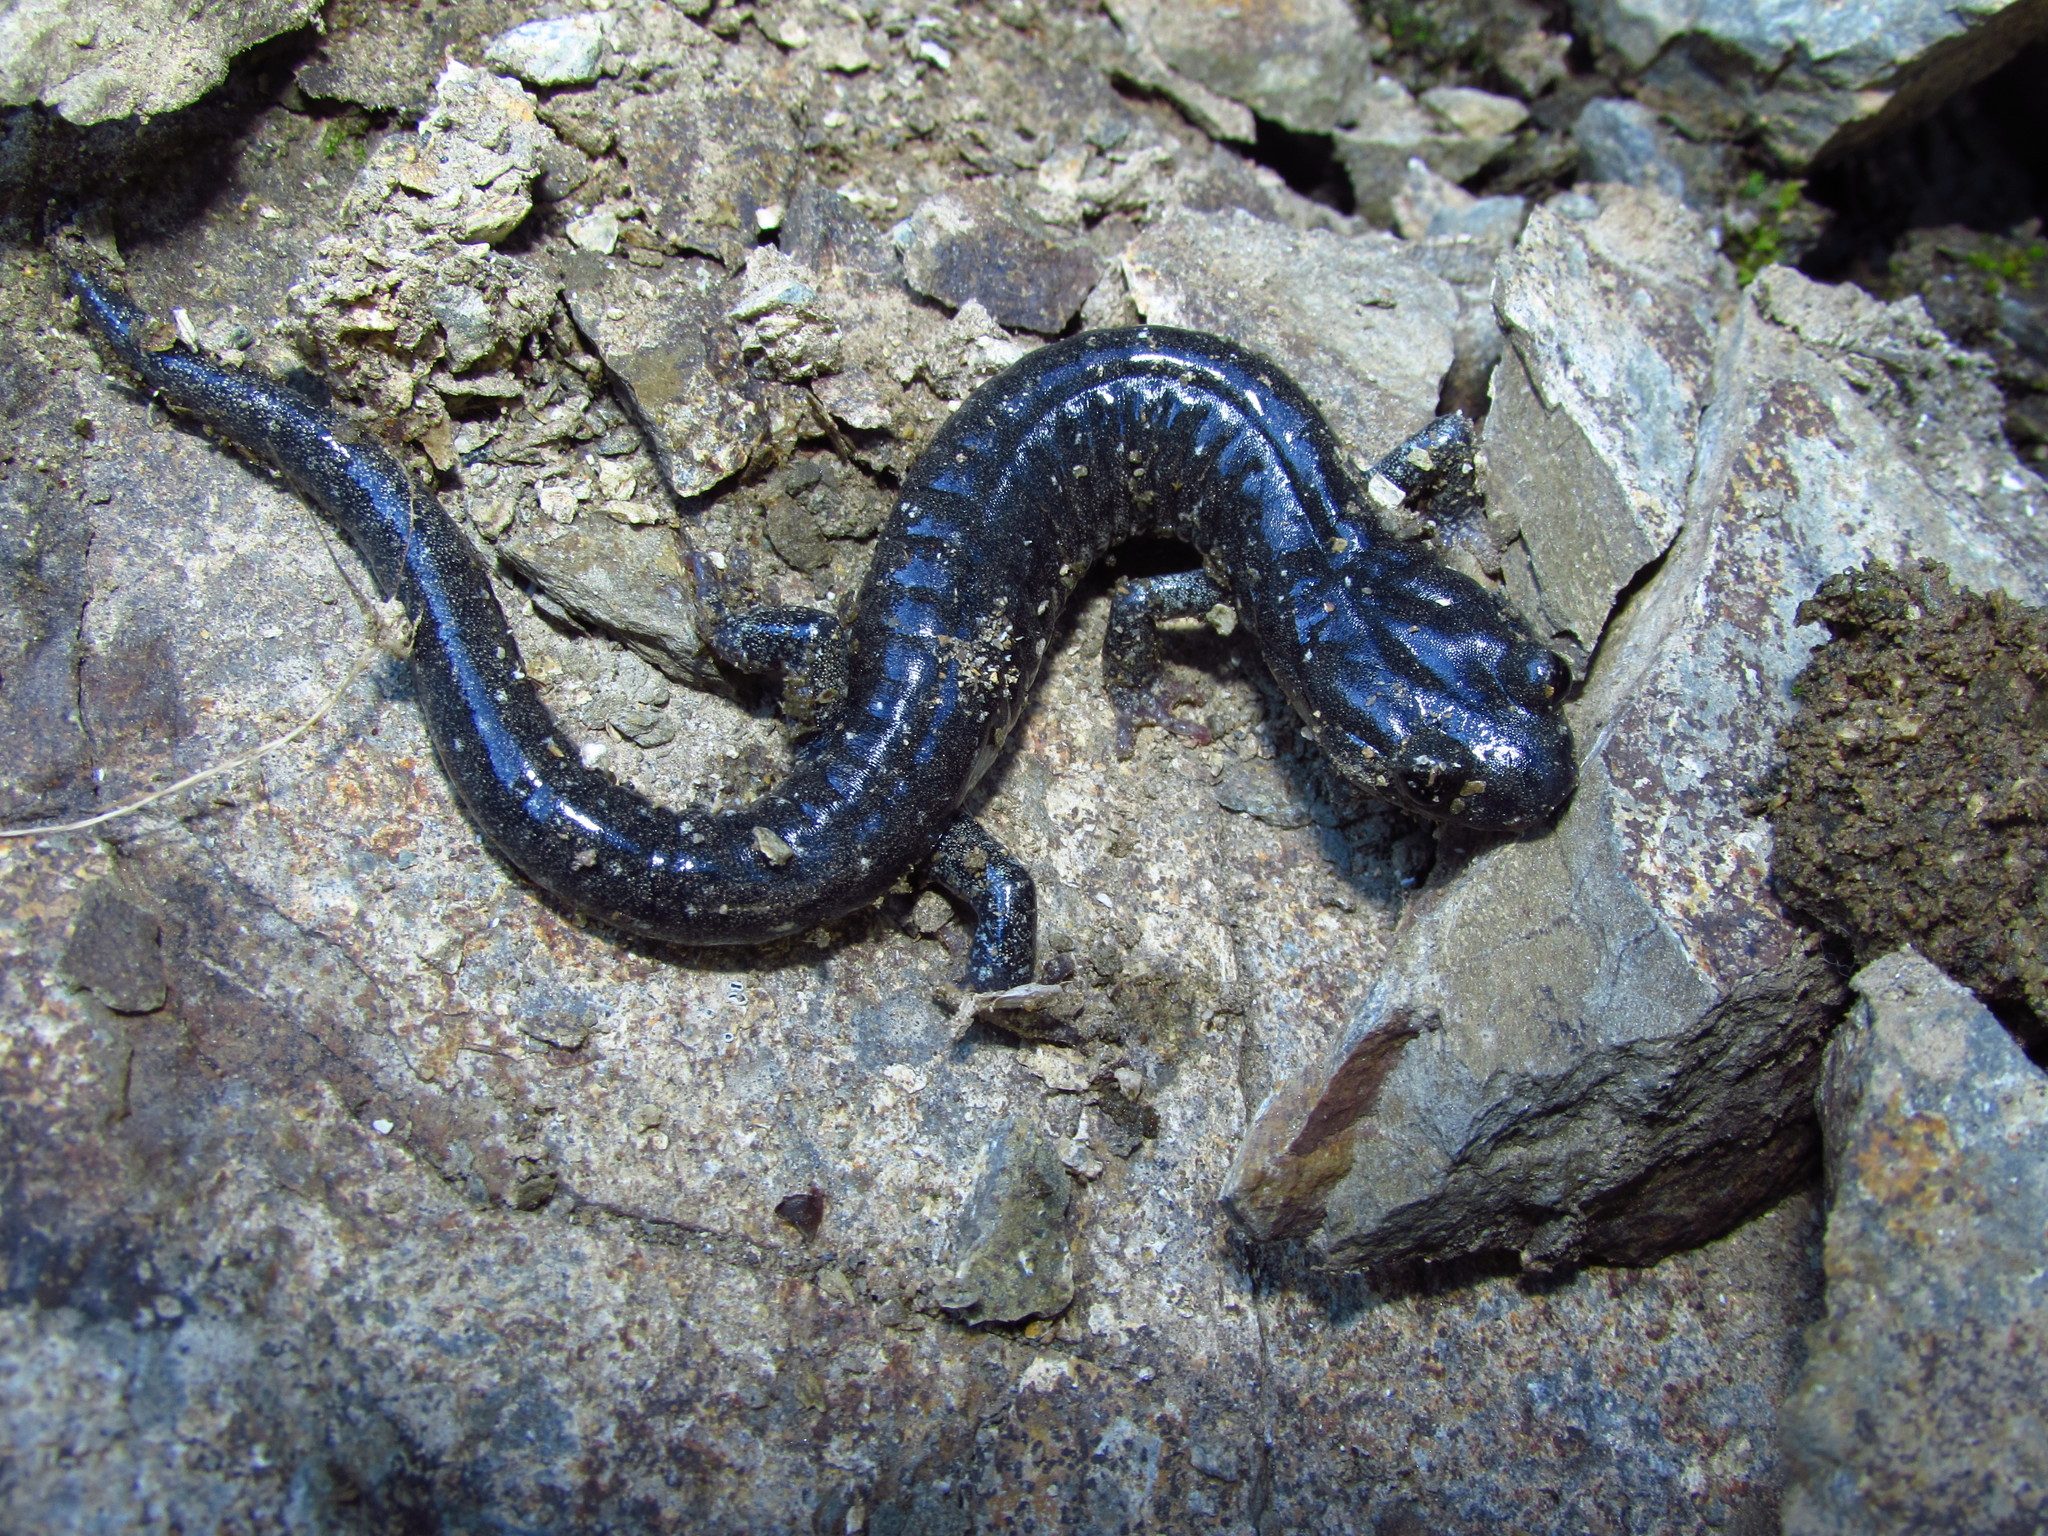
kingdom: Animalia
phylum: Chordata
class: Amphibia
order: Caudata
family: Plethodontidae
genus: Aneides
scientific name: Aneides klamathensis
